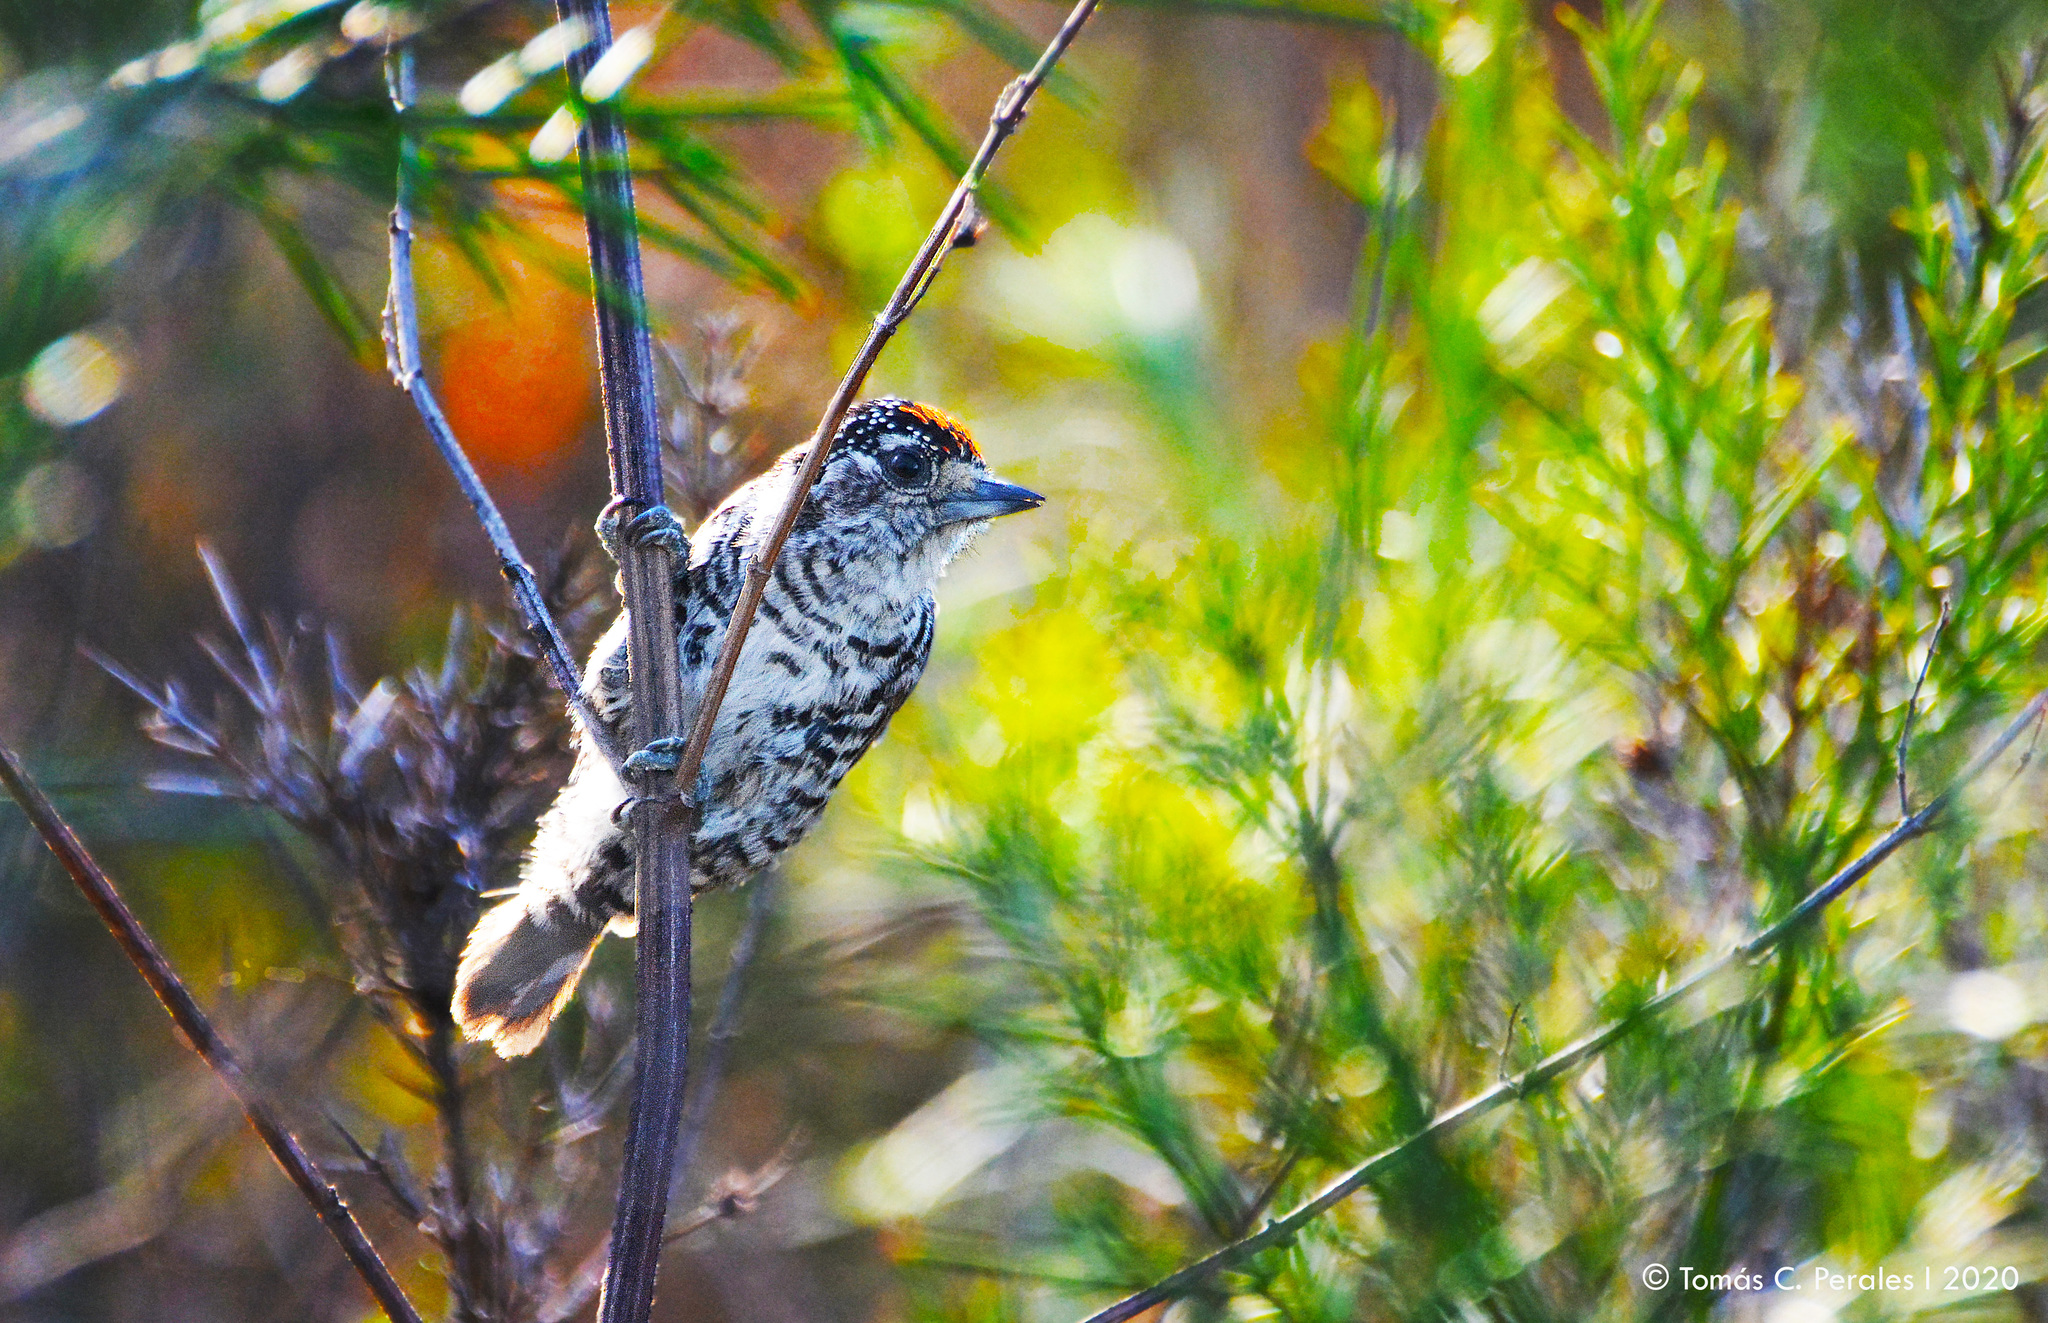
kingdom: Animalia
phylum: Chordata
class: Aves
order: Piciformes
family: Picidae
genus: Picumnus
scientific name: Picumnus cirratus
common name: White-barred piculet
